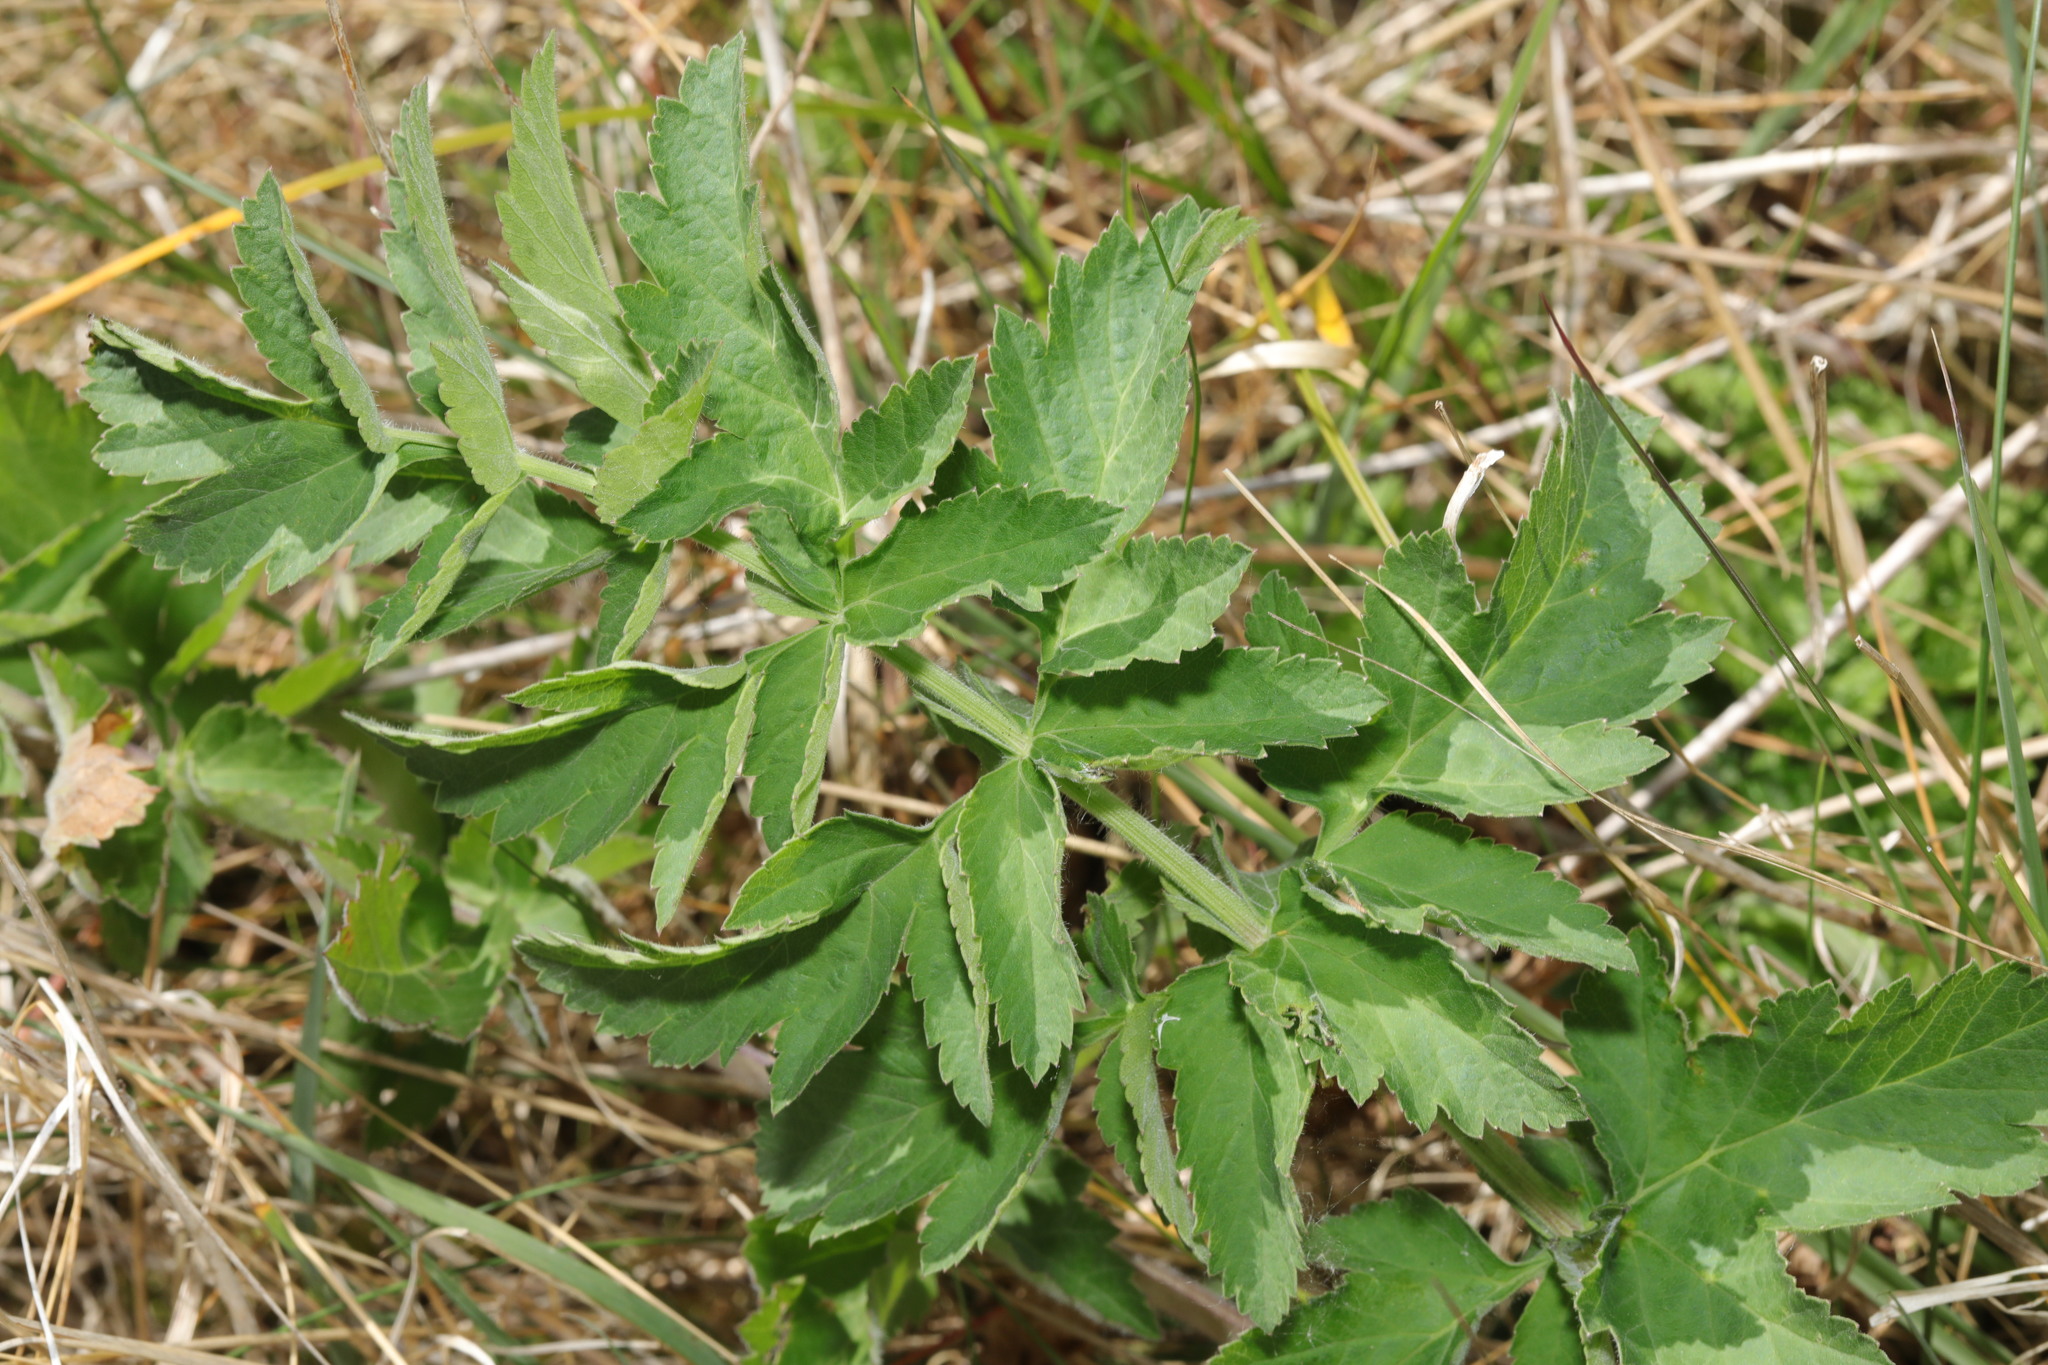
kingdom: Plantae
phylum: Tracheophyta
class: Magnoliopsida
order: Apiales
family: Apiaceae
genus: Pastinaca
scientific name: Pastinaca sativa
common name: Wild parsnip
